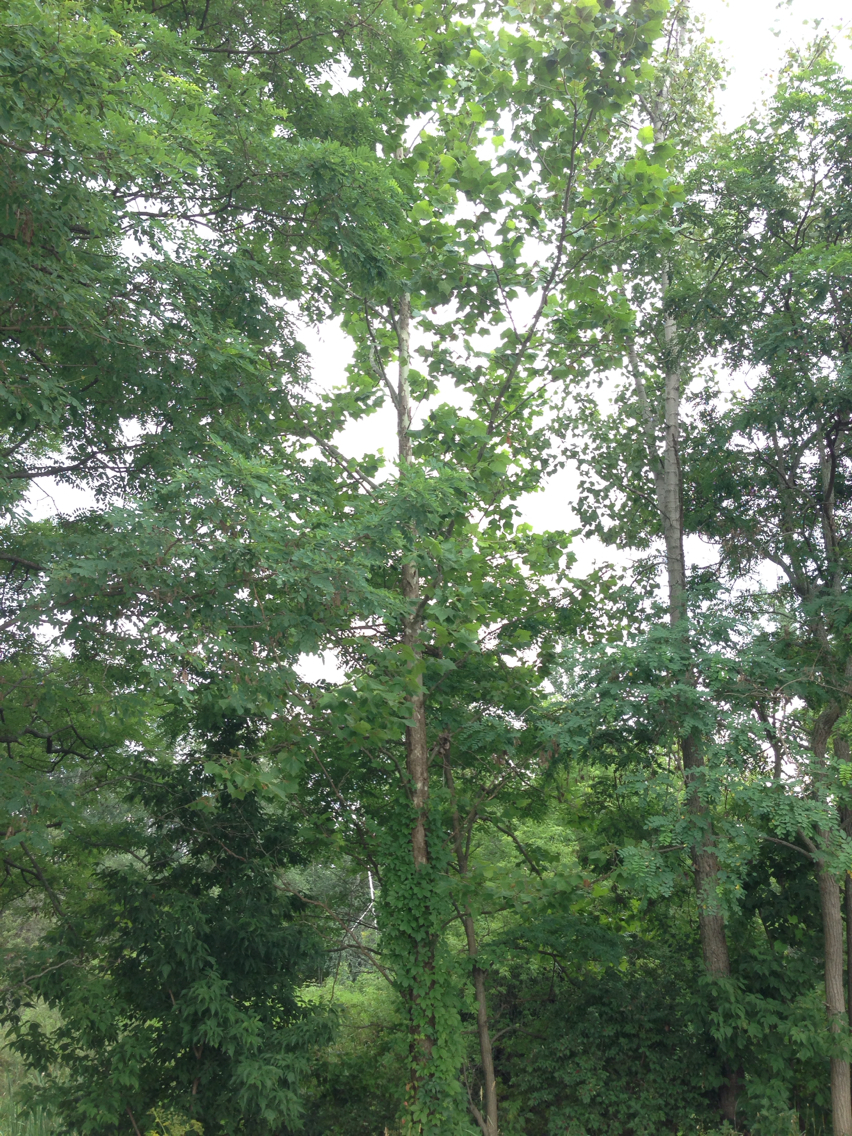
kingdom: Plantae
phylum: Tracheophyta
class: Magnoliopsida
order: Proteales
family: Platanaceae
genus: Platanus
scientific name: Platanus occidentalis
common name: American sycamore
